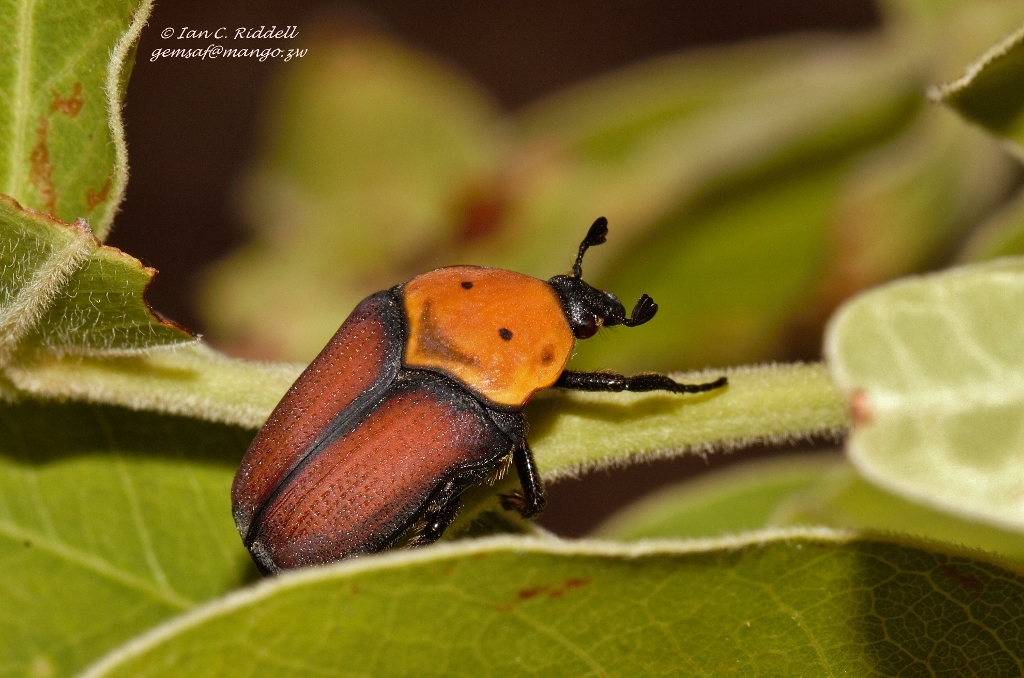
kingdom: Animalia
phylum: Arthropoda
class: Insecta
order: Coleoptera
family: Scarabaeidae
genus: Pseudoclinteria
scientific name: Pseudoclinteria infuscata
